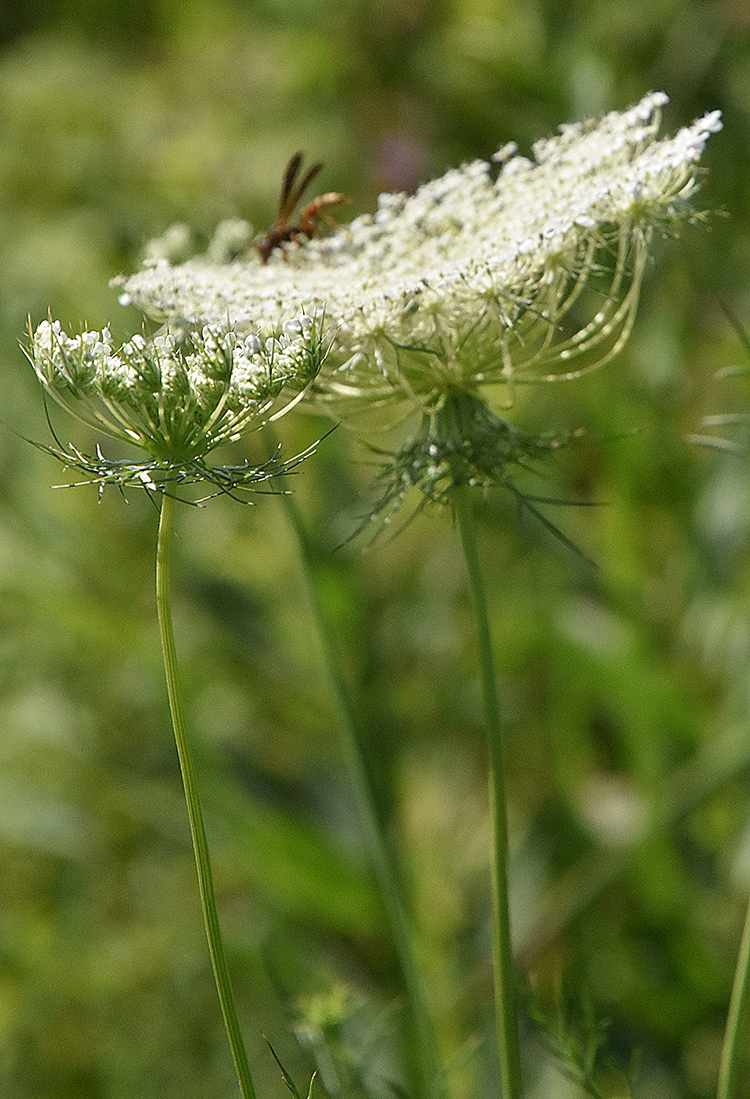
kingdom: Plantae
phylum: Tracheophyta
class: Magnoliopsida
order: Apiales
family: Apiaceae
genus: Daucus
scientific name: Daucus carota
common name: Wild carrot
